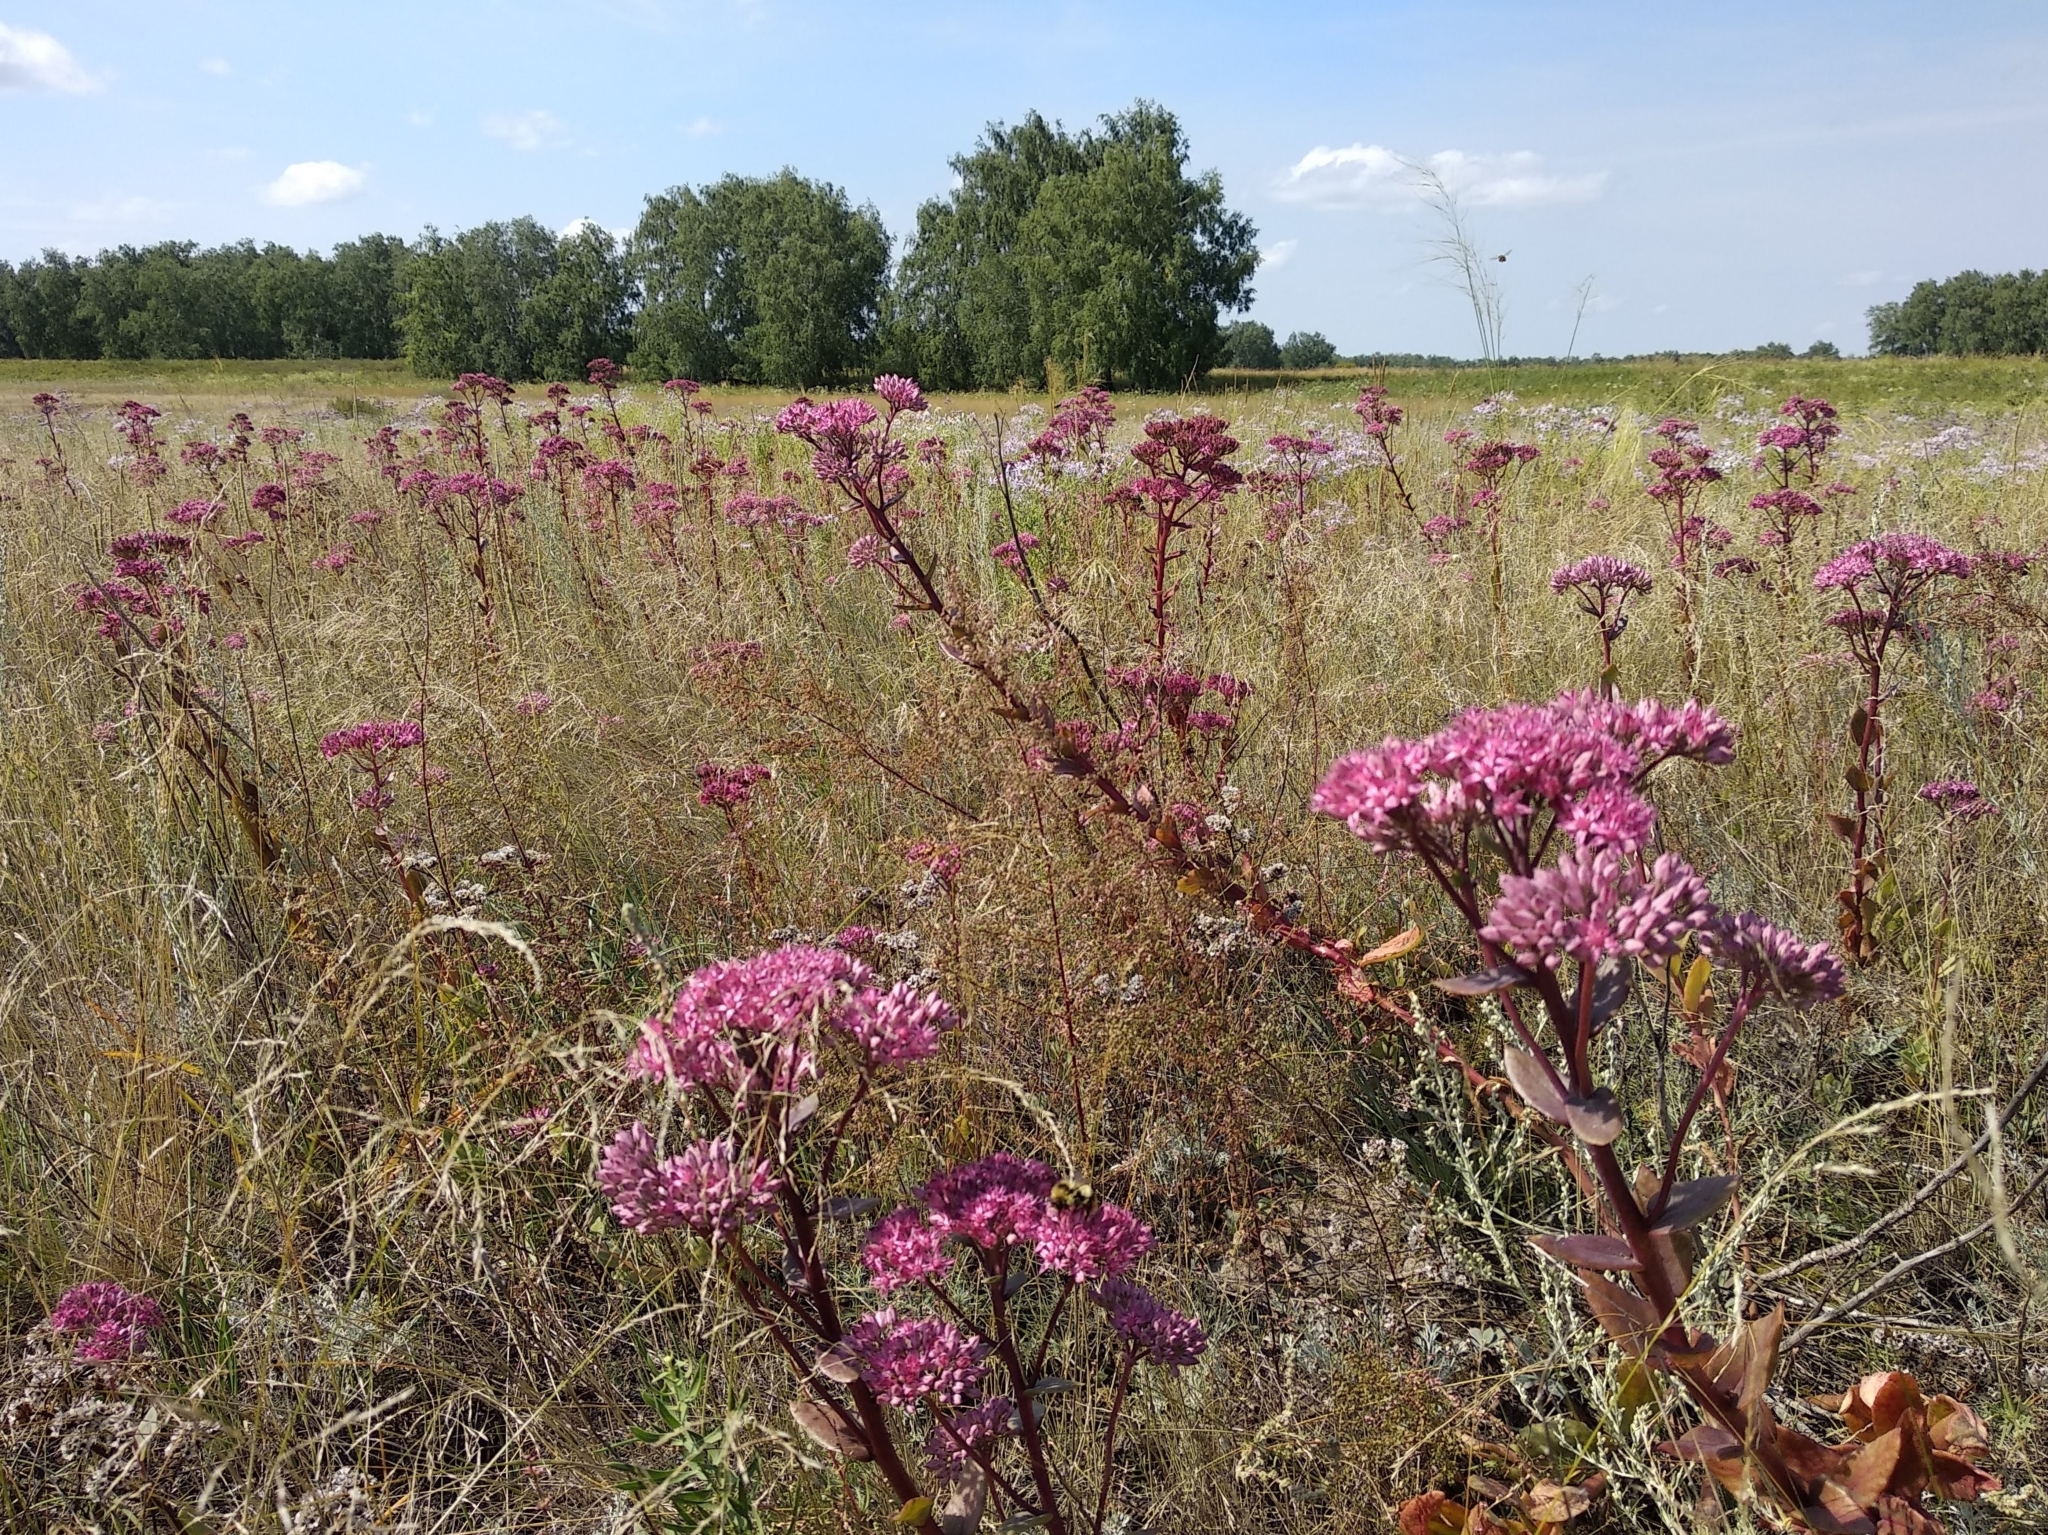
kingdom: Plantae
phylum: Tracheophyta
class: Magnoliopsida
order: Saxifragales
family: Crassulaceae
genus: Hylotelephium
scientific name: Hylotelephium telephium
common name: Live-forever
